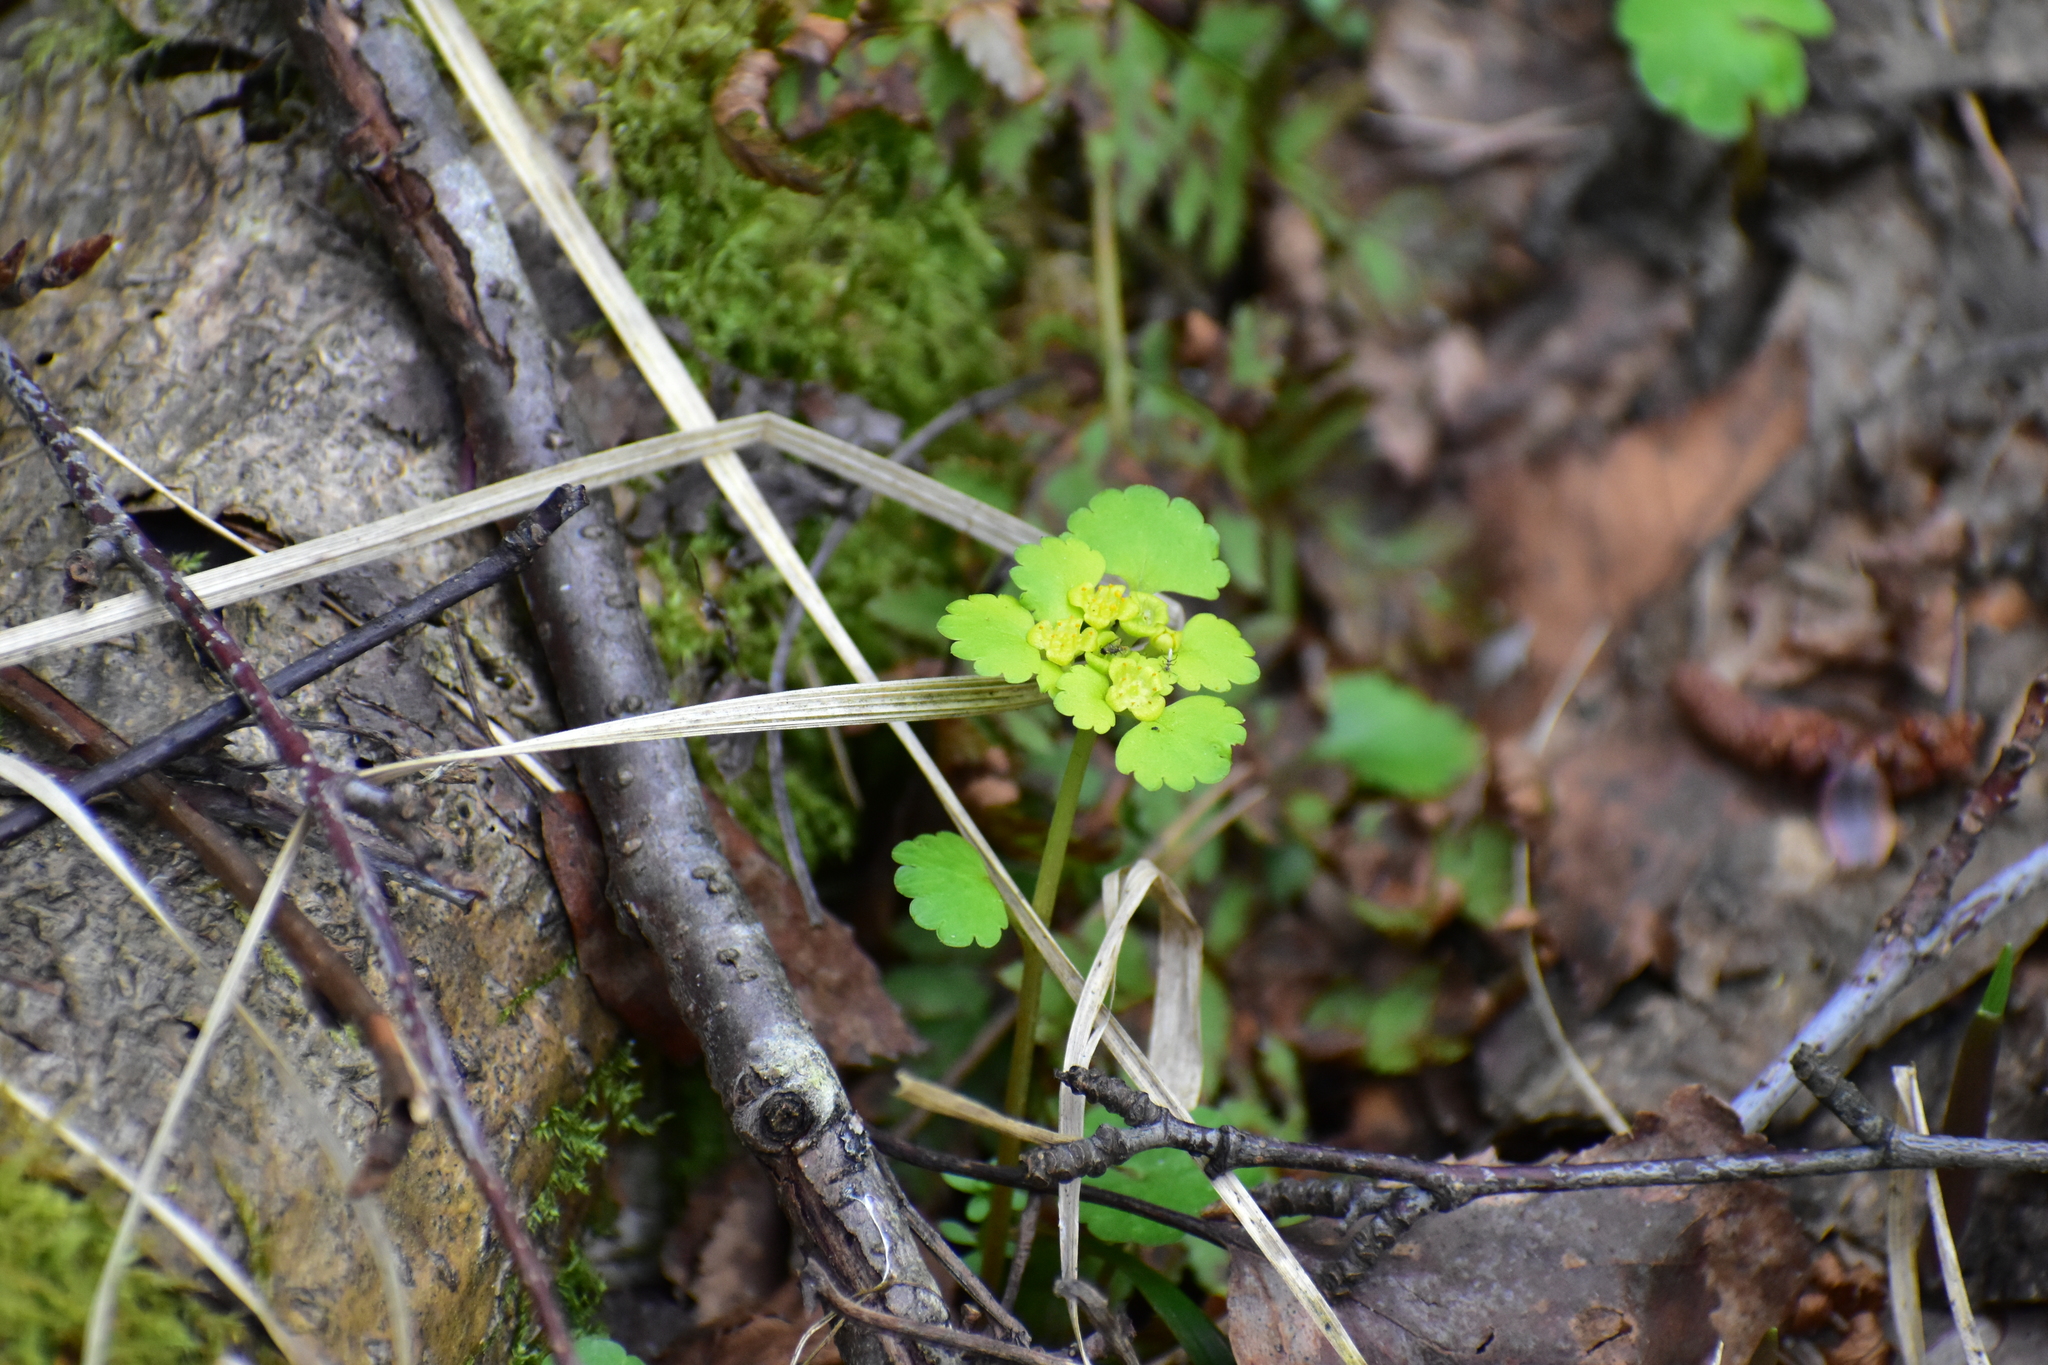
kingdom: Plantae
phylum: Tracheophyta
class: Magnoliopsida
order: Saxifragales
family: Saxifragaceae
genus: Chrysosplenium
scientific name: Chrysosplenium alternifolium
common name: Alternate-leaved golden-saxifrage
